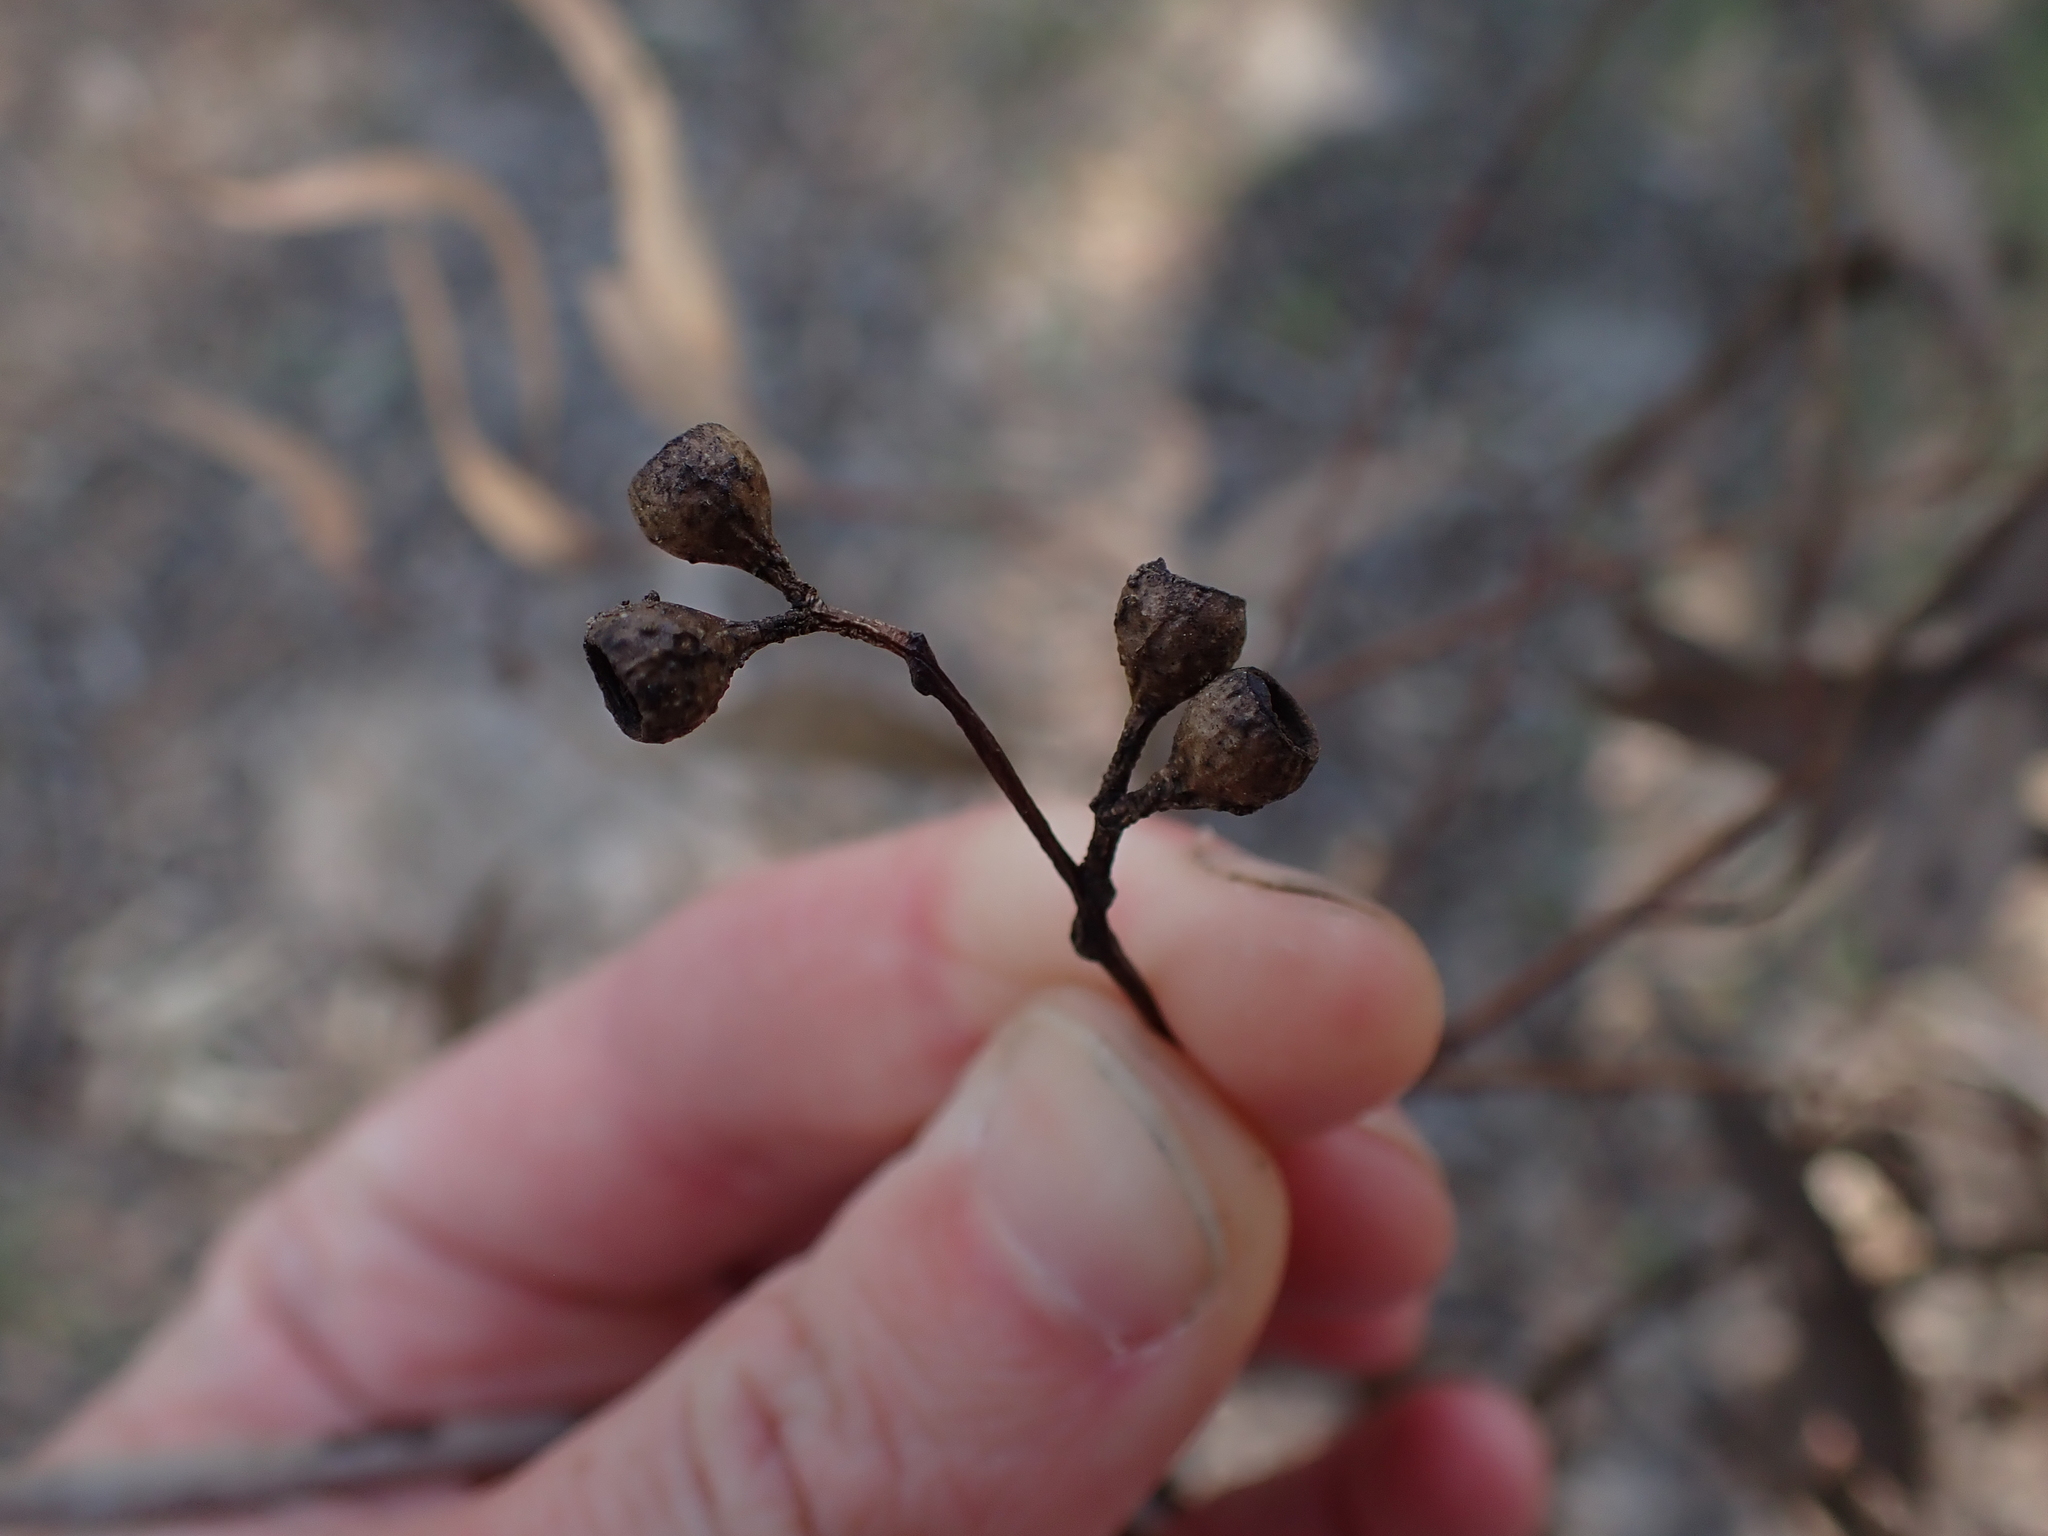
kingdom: Plantae
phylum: Tracheophyta
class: Magnoliopsida
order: Myrtales
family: Myrtaceae
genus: Eucalyptus
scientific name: Eucalyptus melliodora
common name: Yellow ironbox
